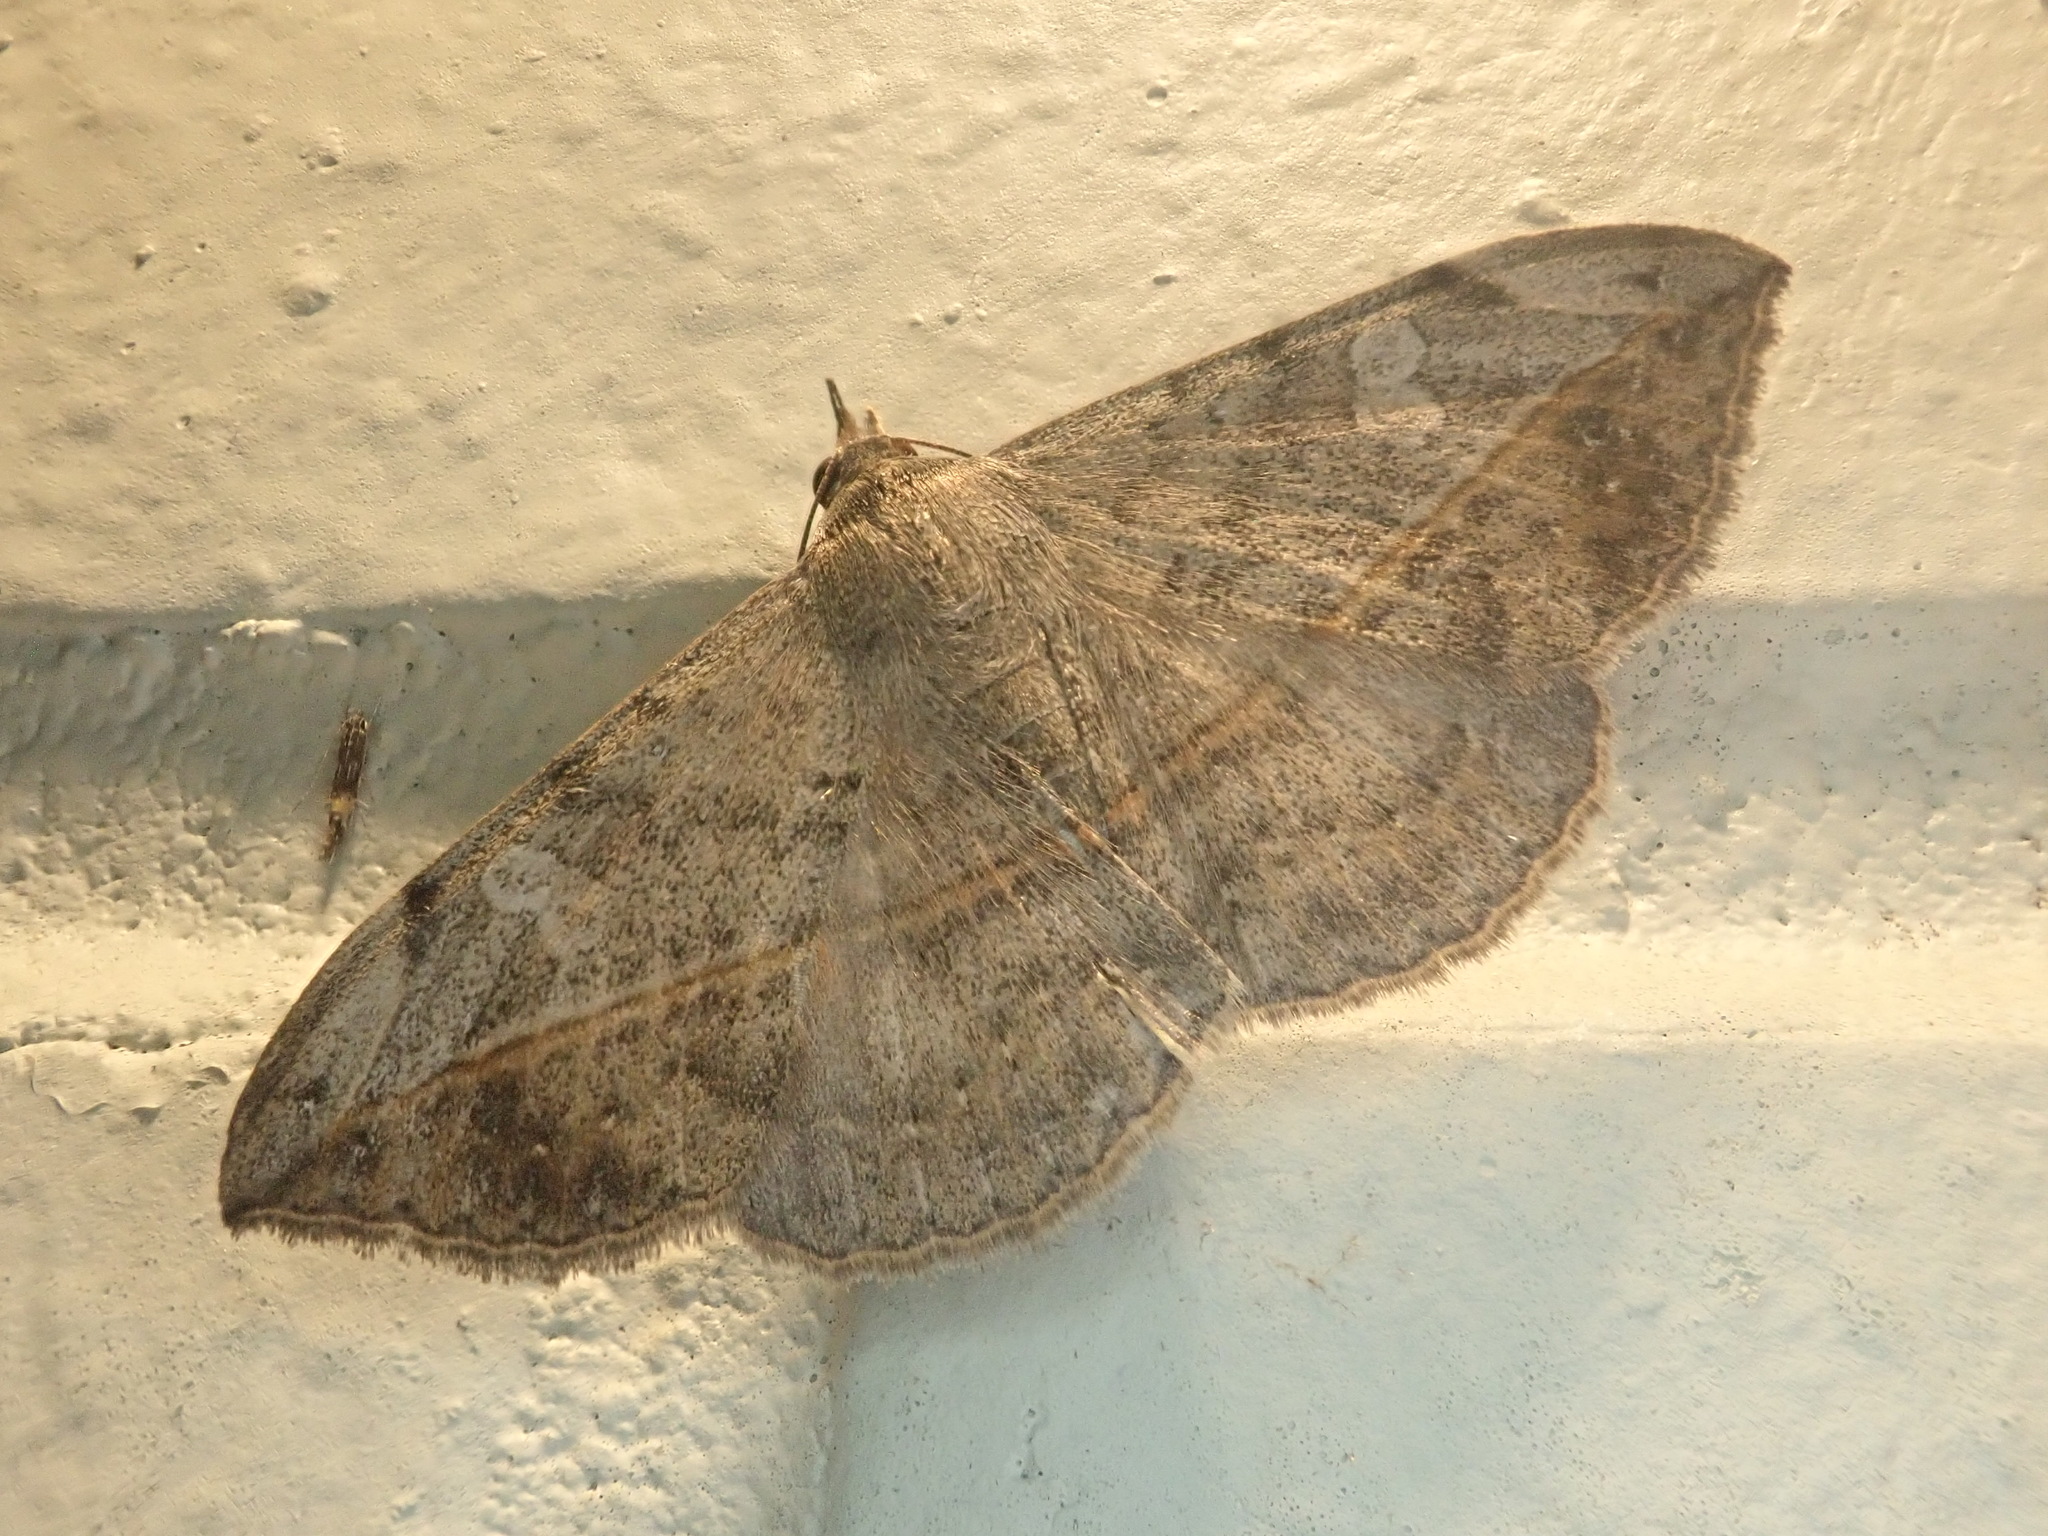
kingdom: Animalia
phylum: Arthropoda
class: Insecta
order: Lepidoptera
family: Erebidae
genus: Anticarsia
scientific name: Anticarsia gemmatalis
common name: Cutworm moth
